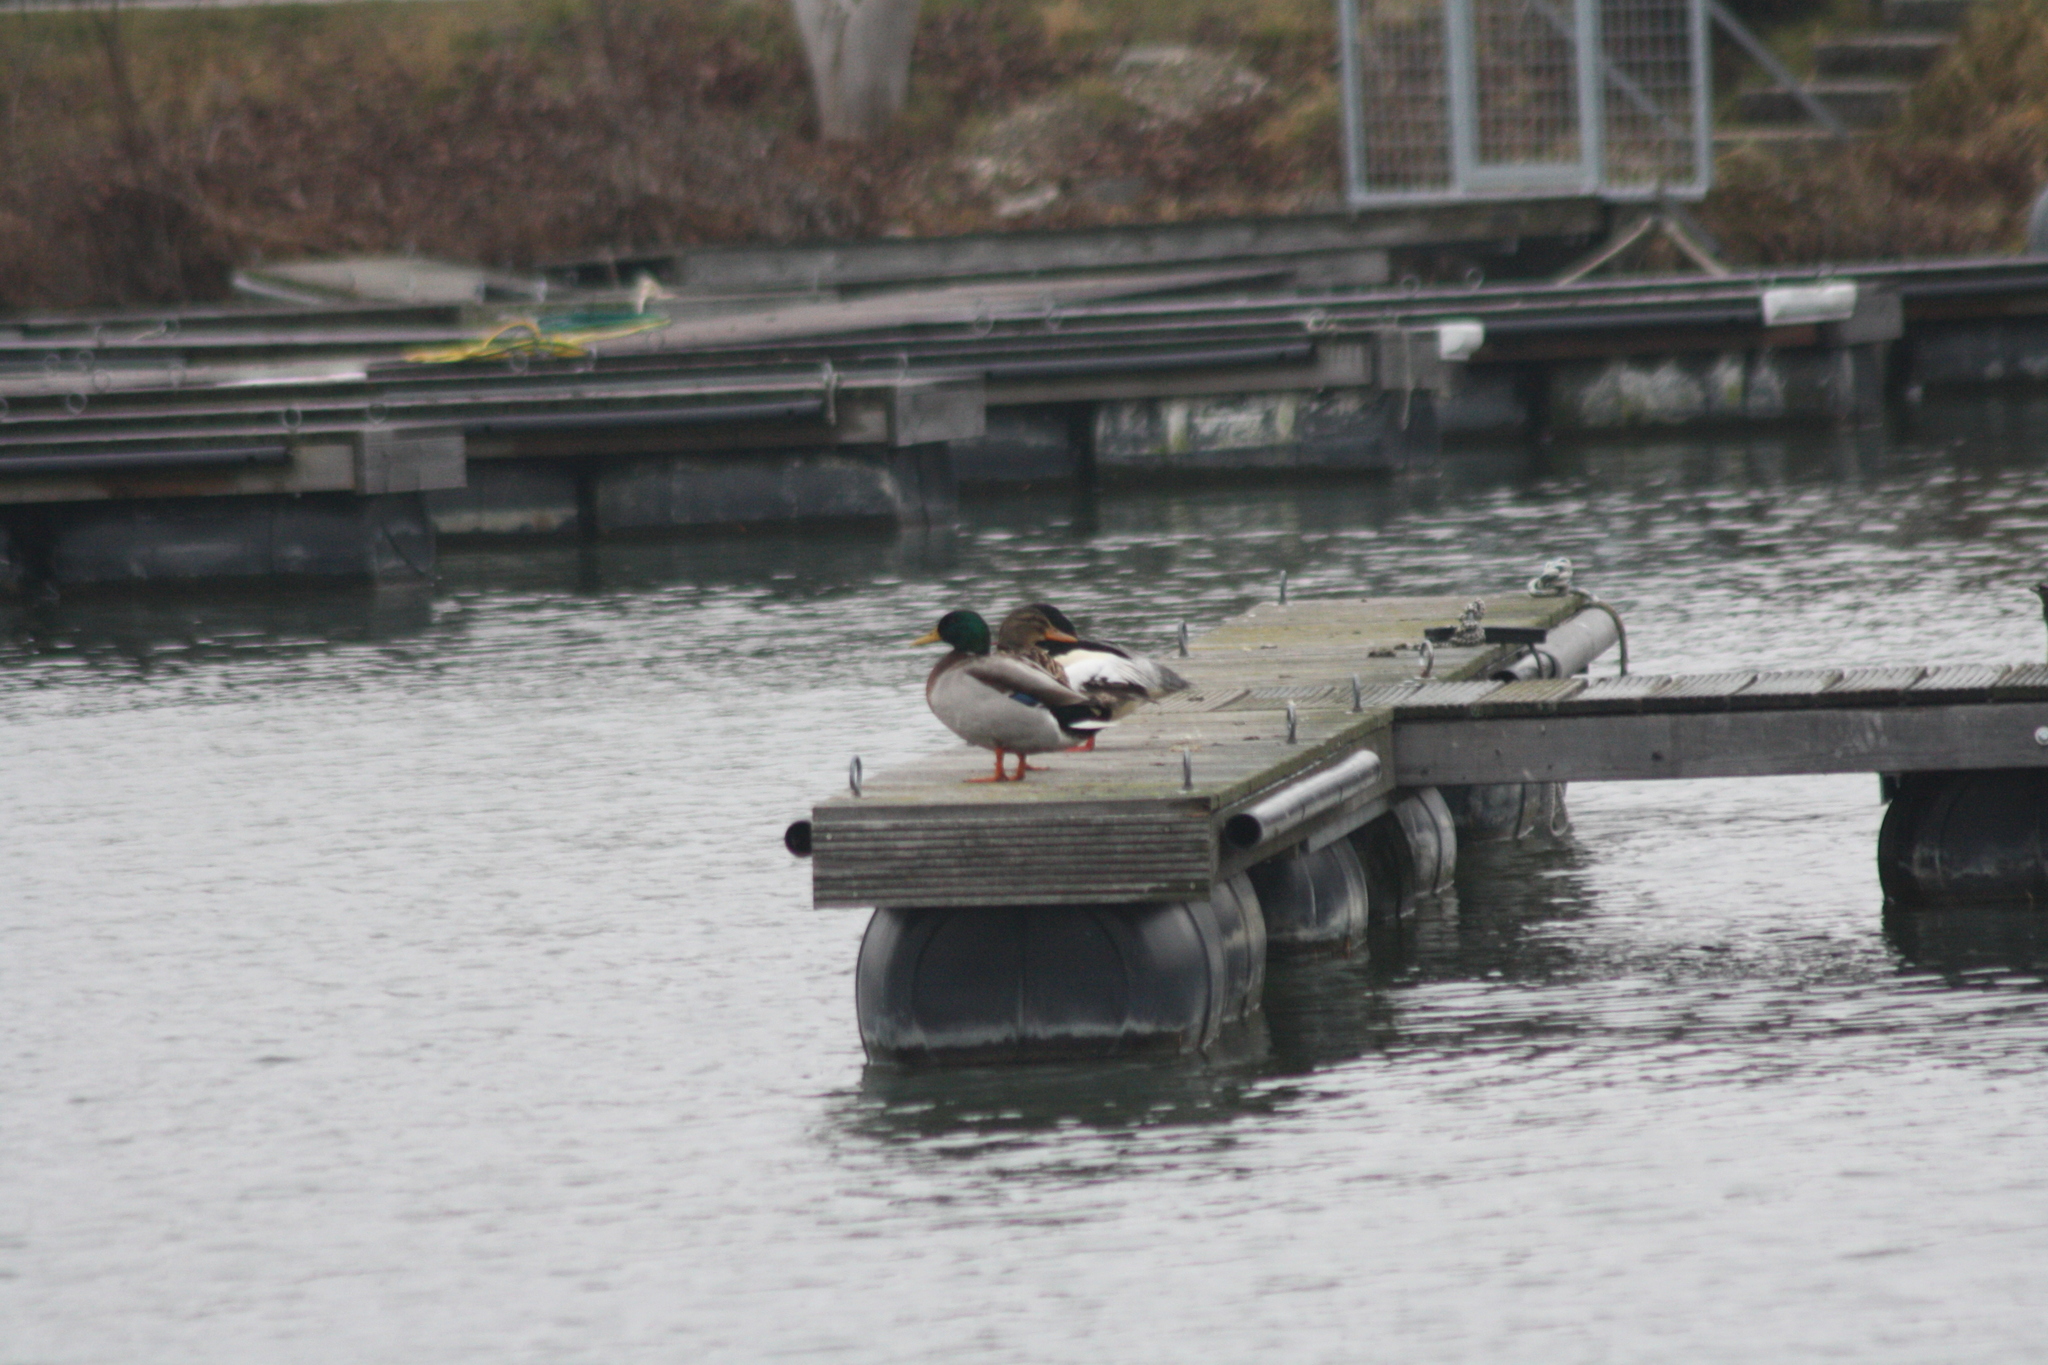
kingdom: Animalia
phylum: Chordata
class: Aves
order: Anseriformes
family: Anatidae
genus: Anas
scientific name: Anas platyrhynchos
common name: Mallard
